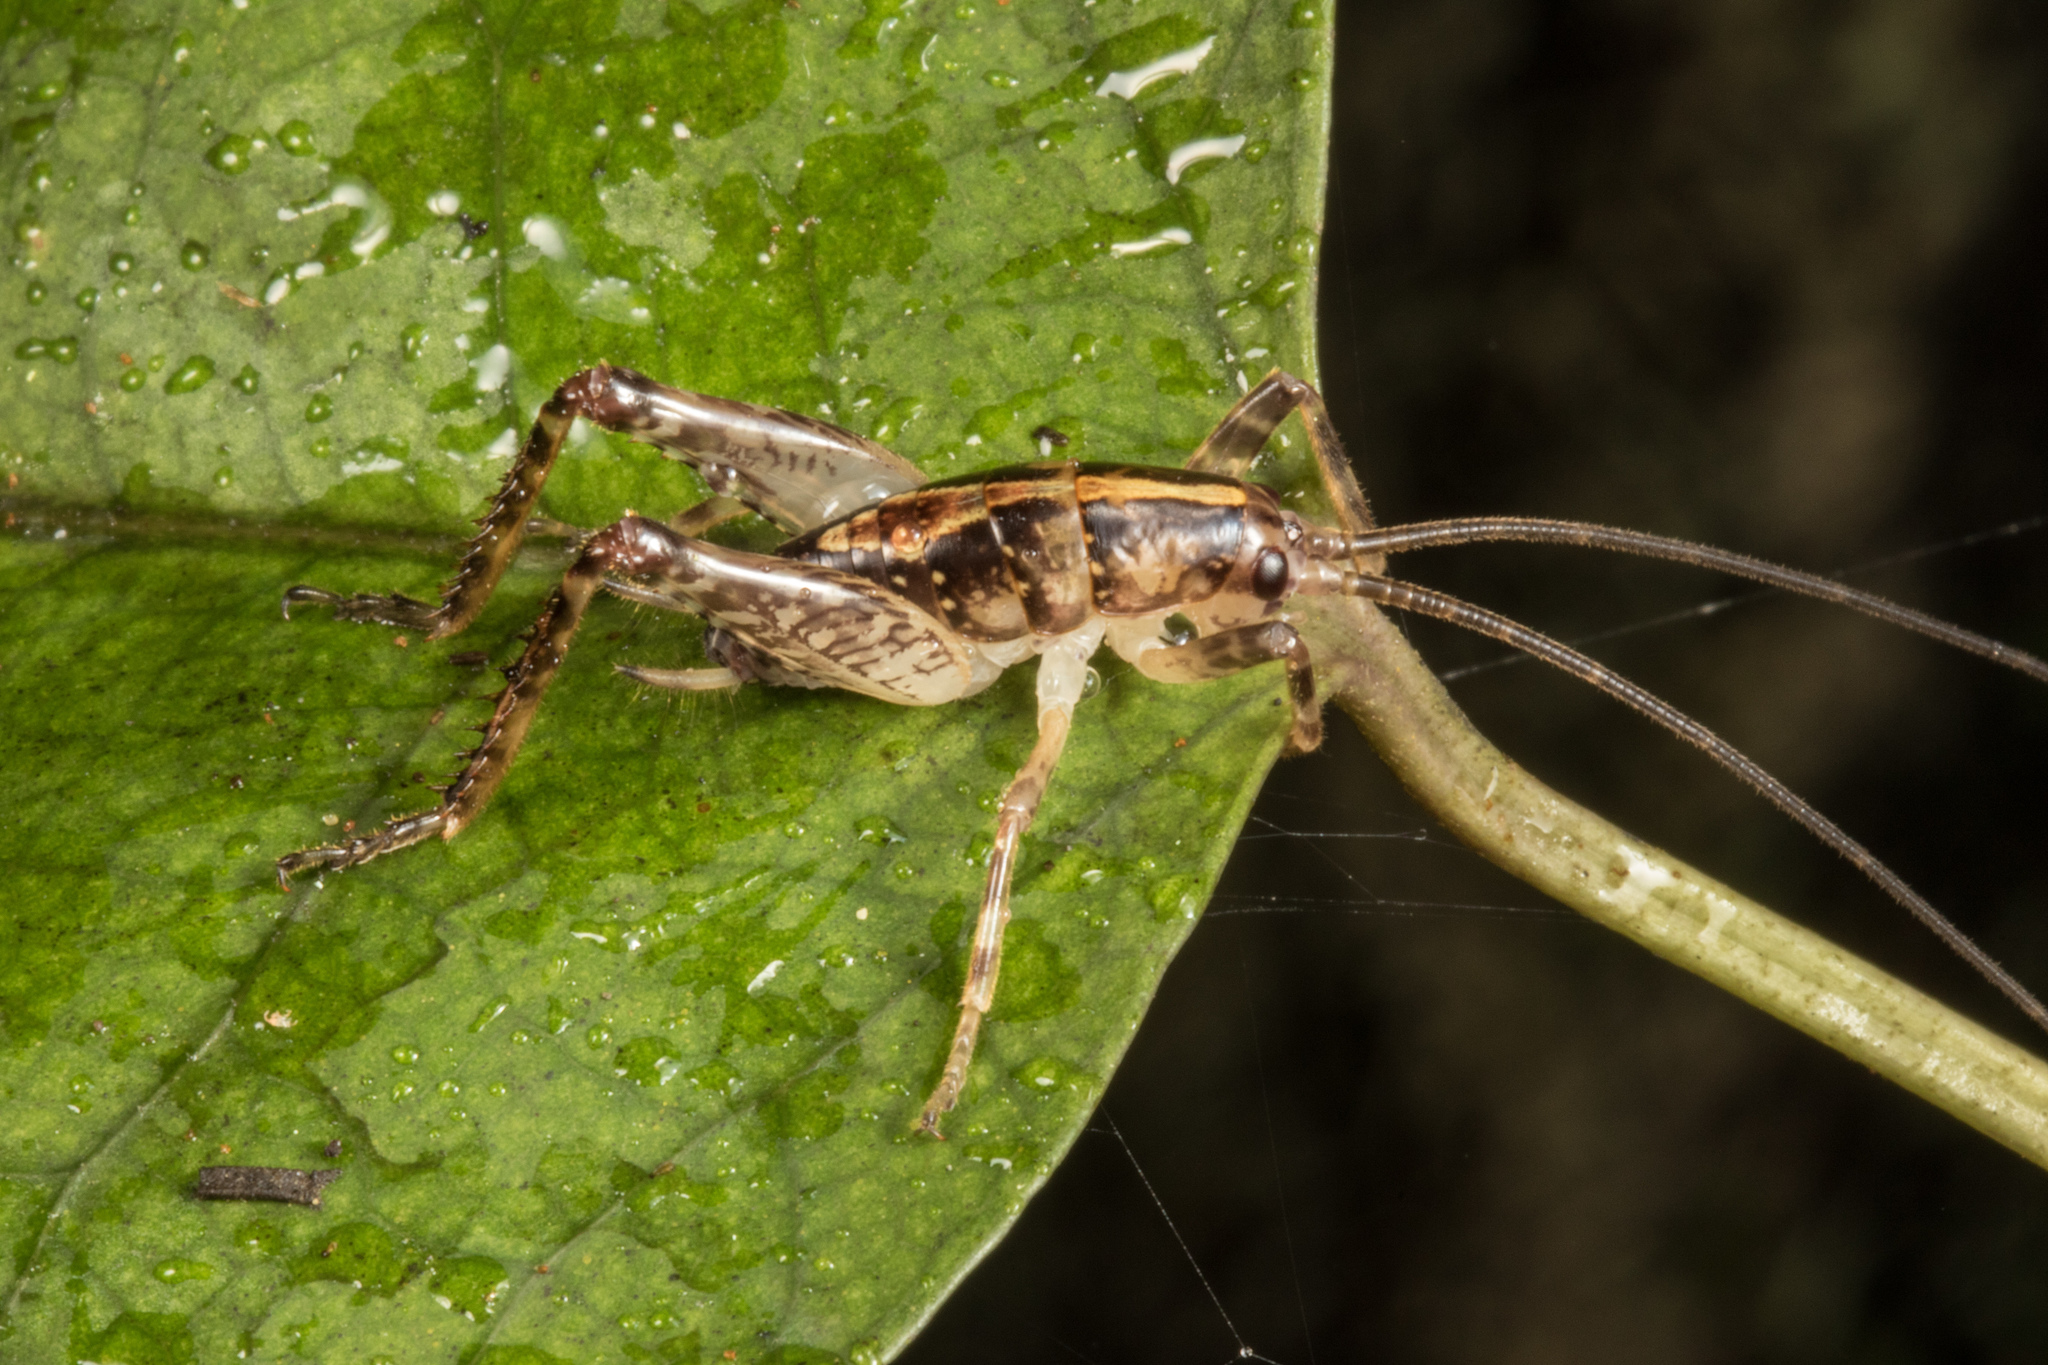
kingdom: Animalia
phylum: Arthropoda
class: Insecta
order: Orthoptera
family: Rhaphidophoridae
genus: Talitropsis
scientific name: Talitropsis sedilloti
